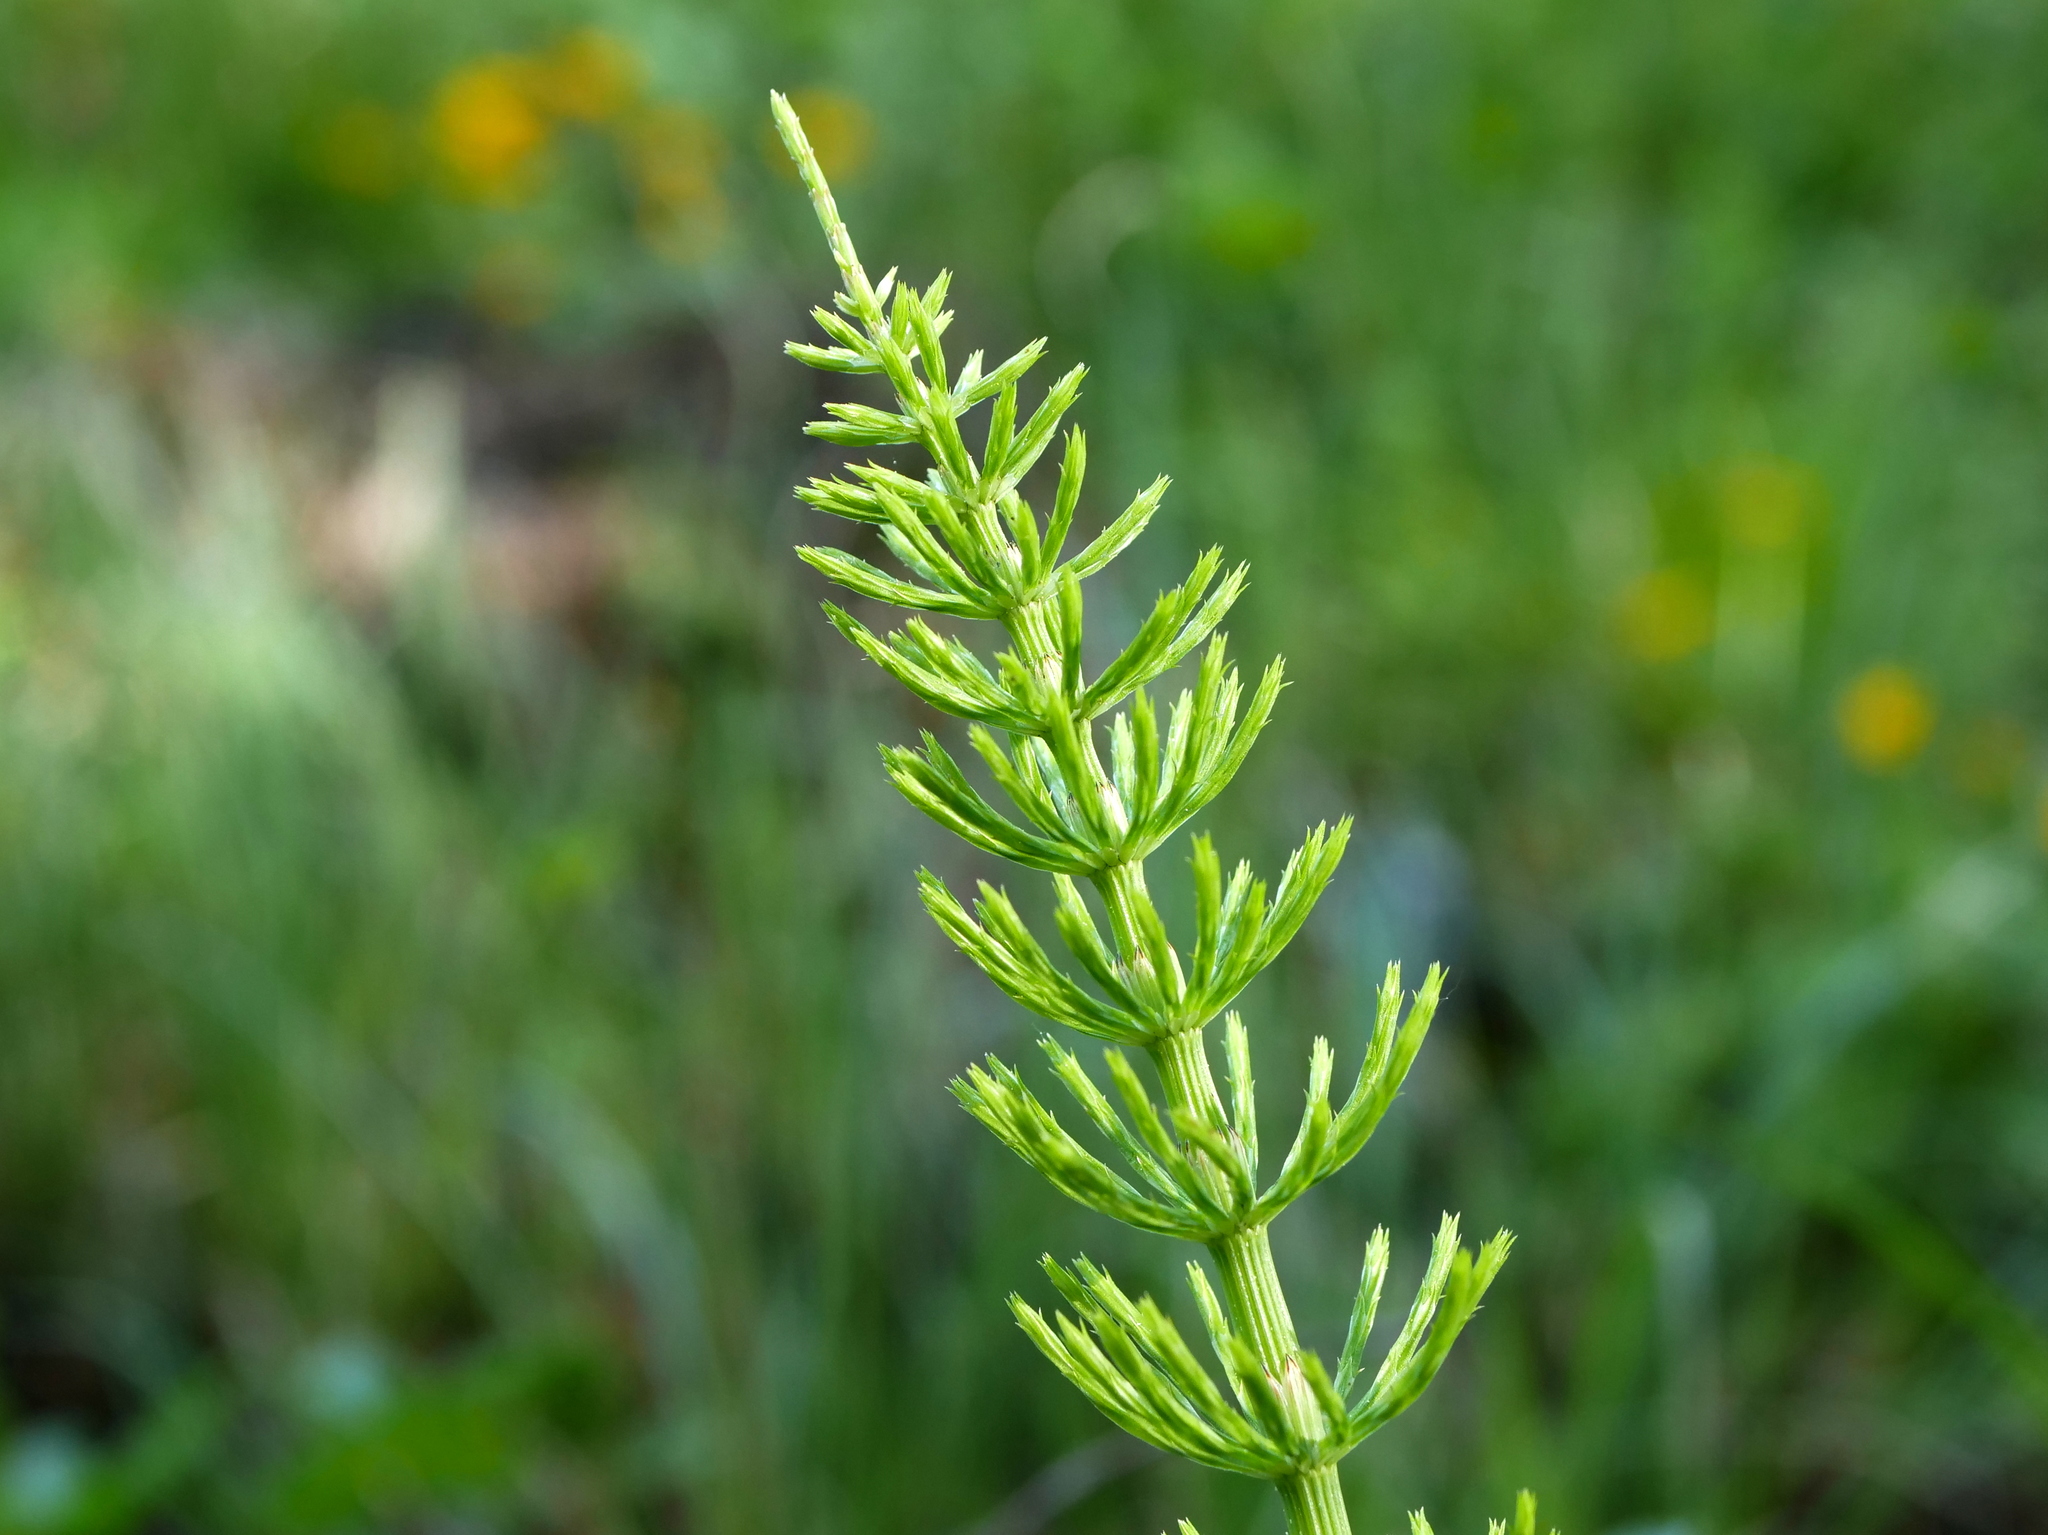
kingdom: Plantae
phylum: Tracheophyta
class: Polypodiopsida
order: Equisetales
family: Equisetaceae
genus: Equisetum
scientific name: Equisetum arvense
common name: Field horsetail
